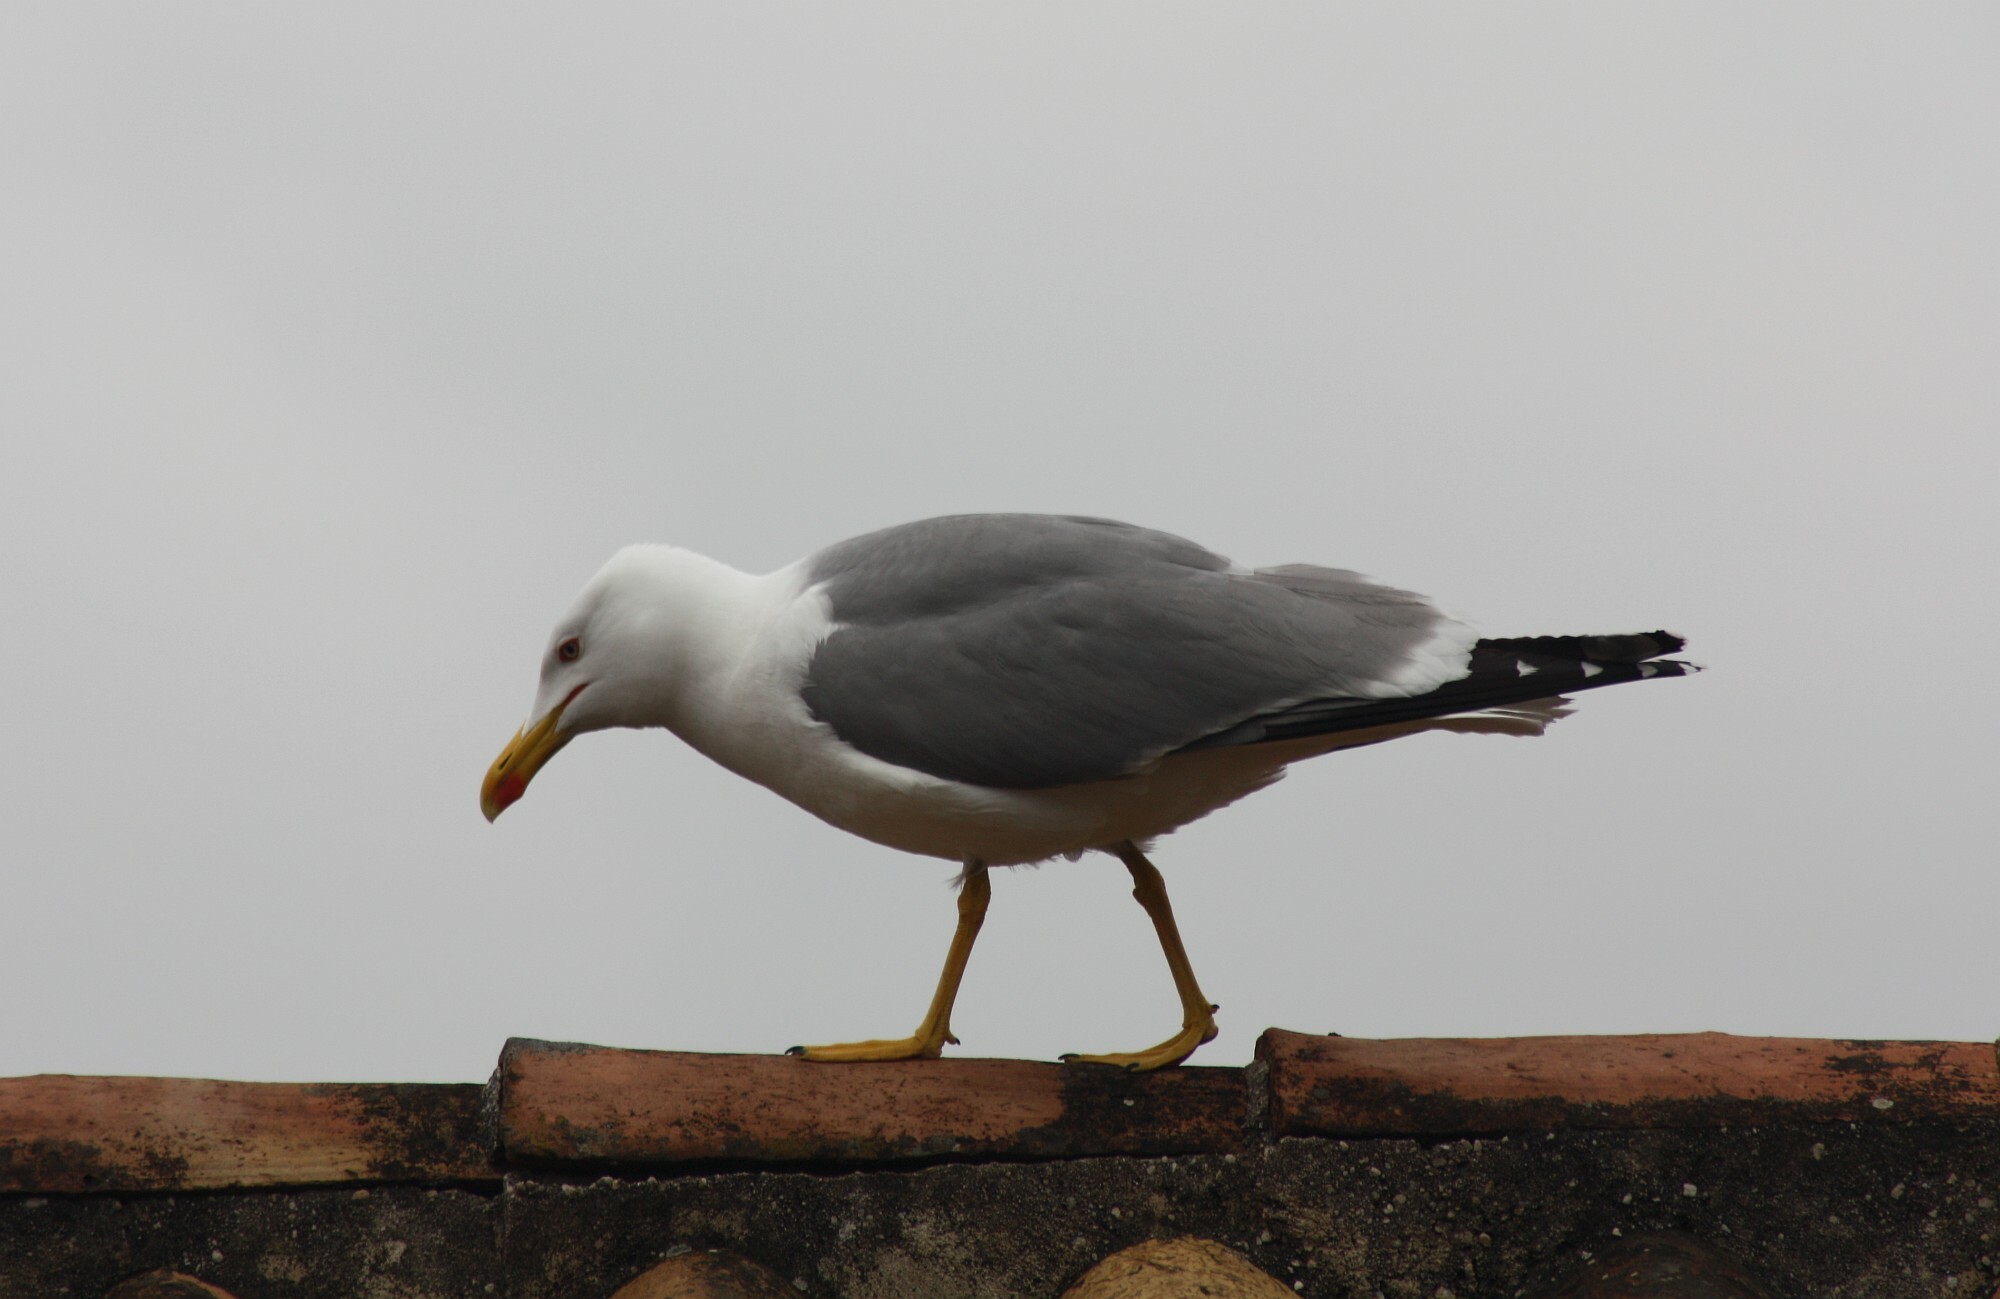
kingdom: Animalia
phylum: Chordata
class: Aves
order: Charadriiformes
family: Laridae
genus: Larus
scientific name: Larus michahellis
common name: Yellow-legged gull
